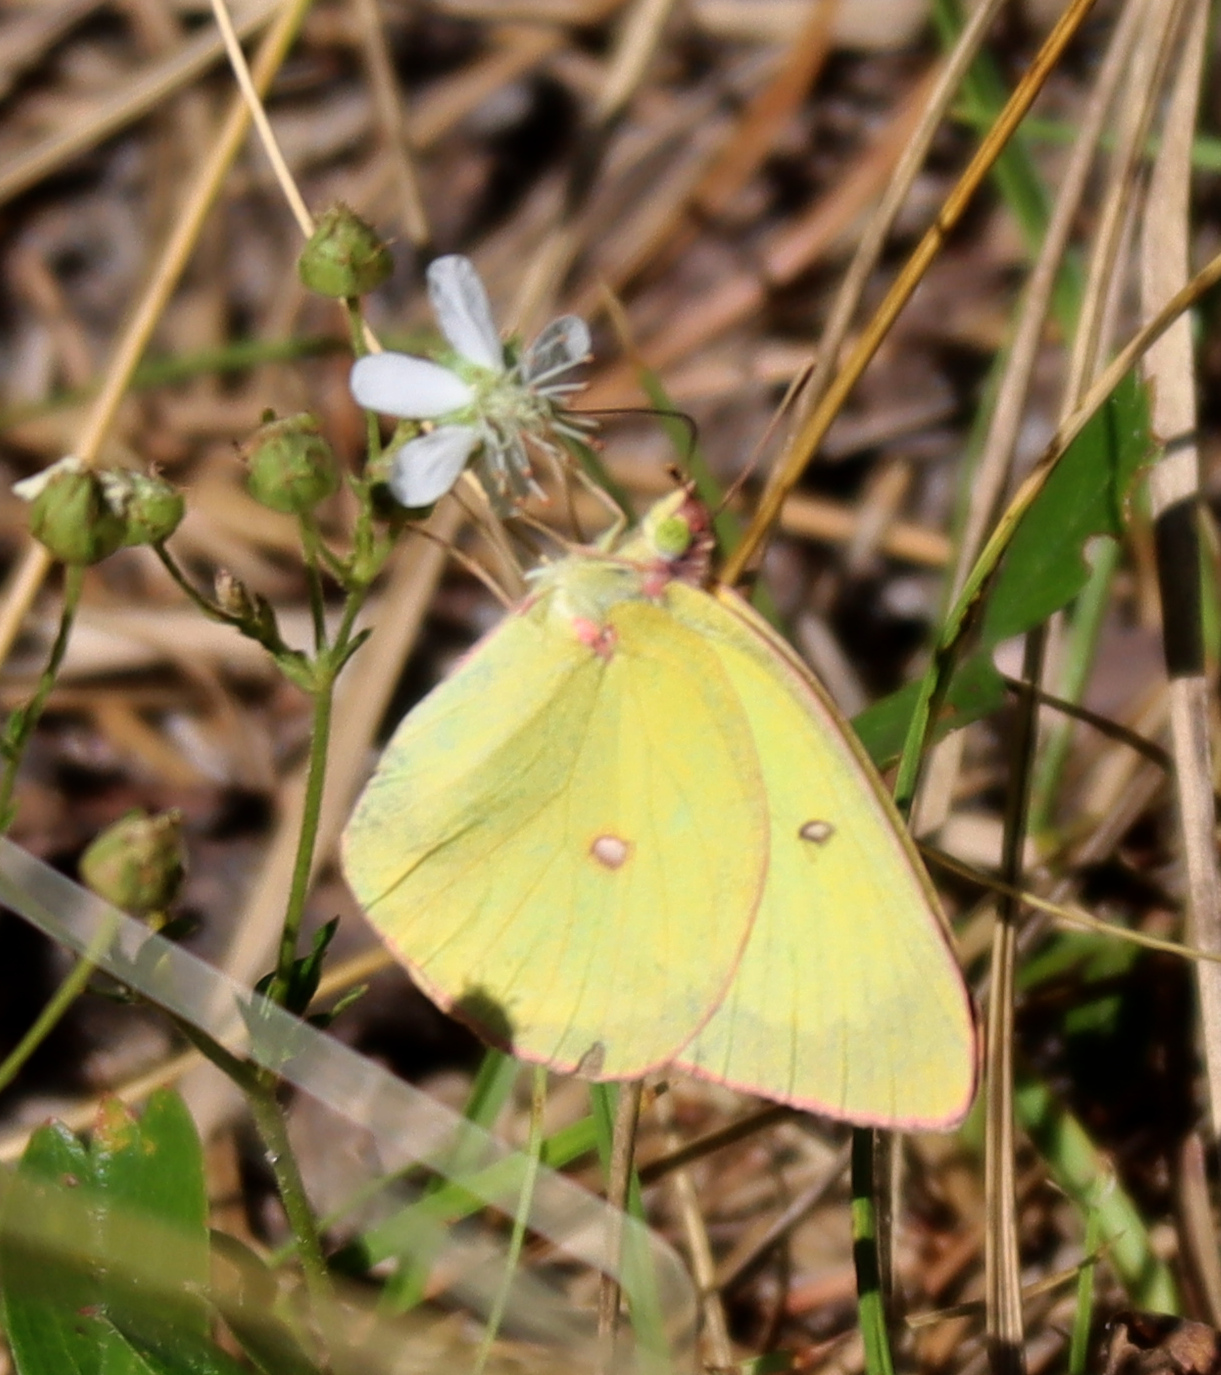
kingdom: Animalia
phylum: Arthropoda
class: Insecta
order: Lepidoptera
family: Pieridae
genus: Colias
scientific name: Colias interior
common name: Pink-edged sulphur
